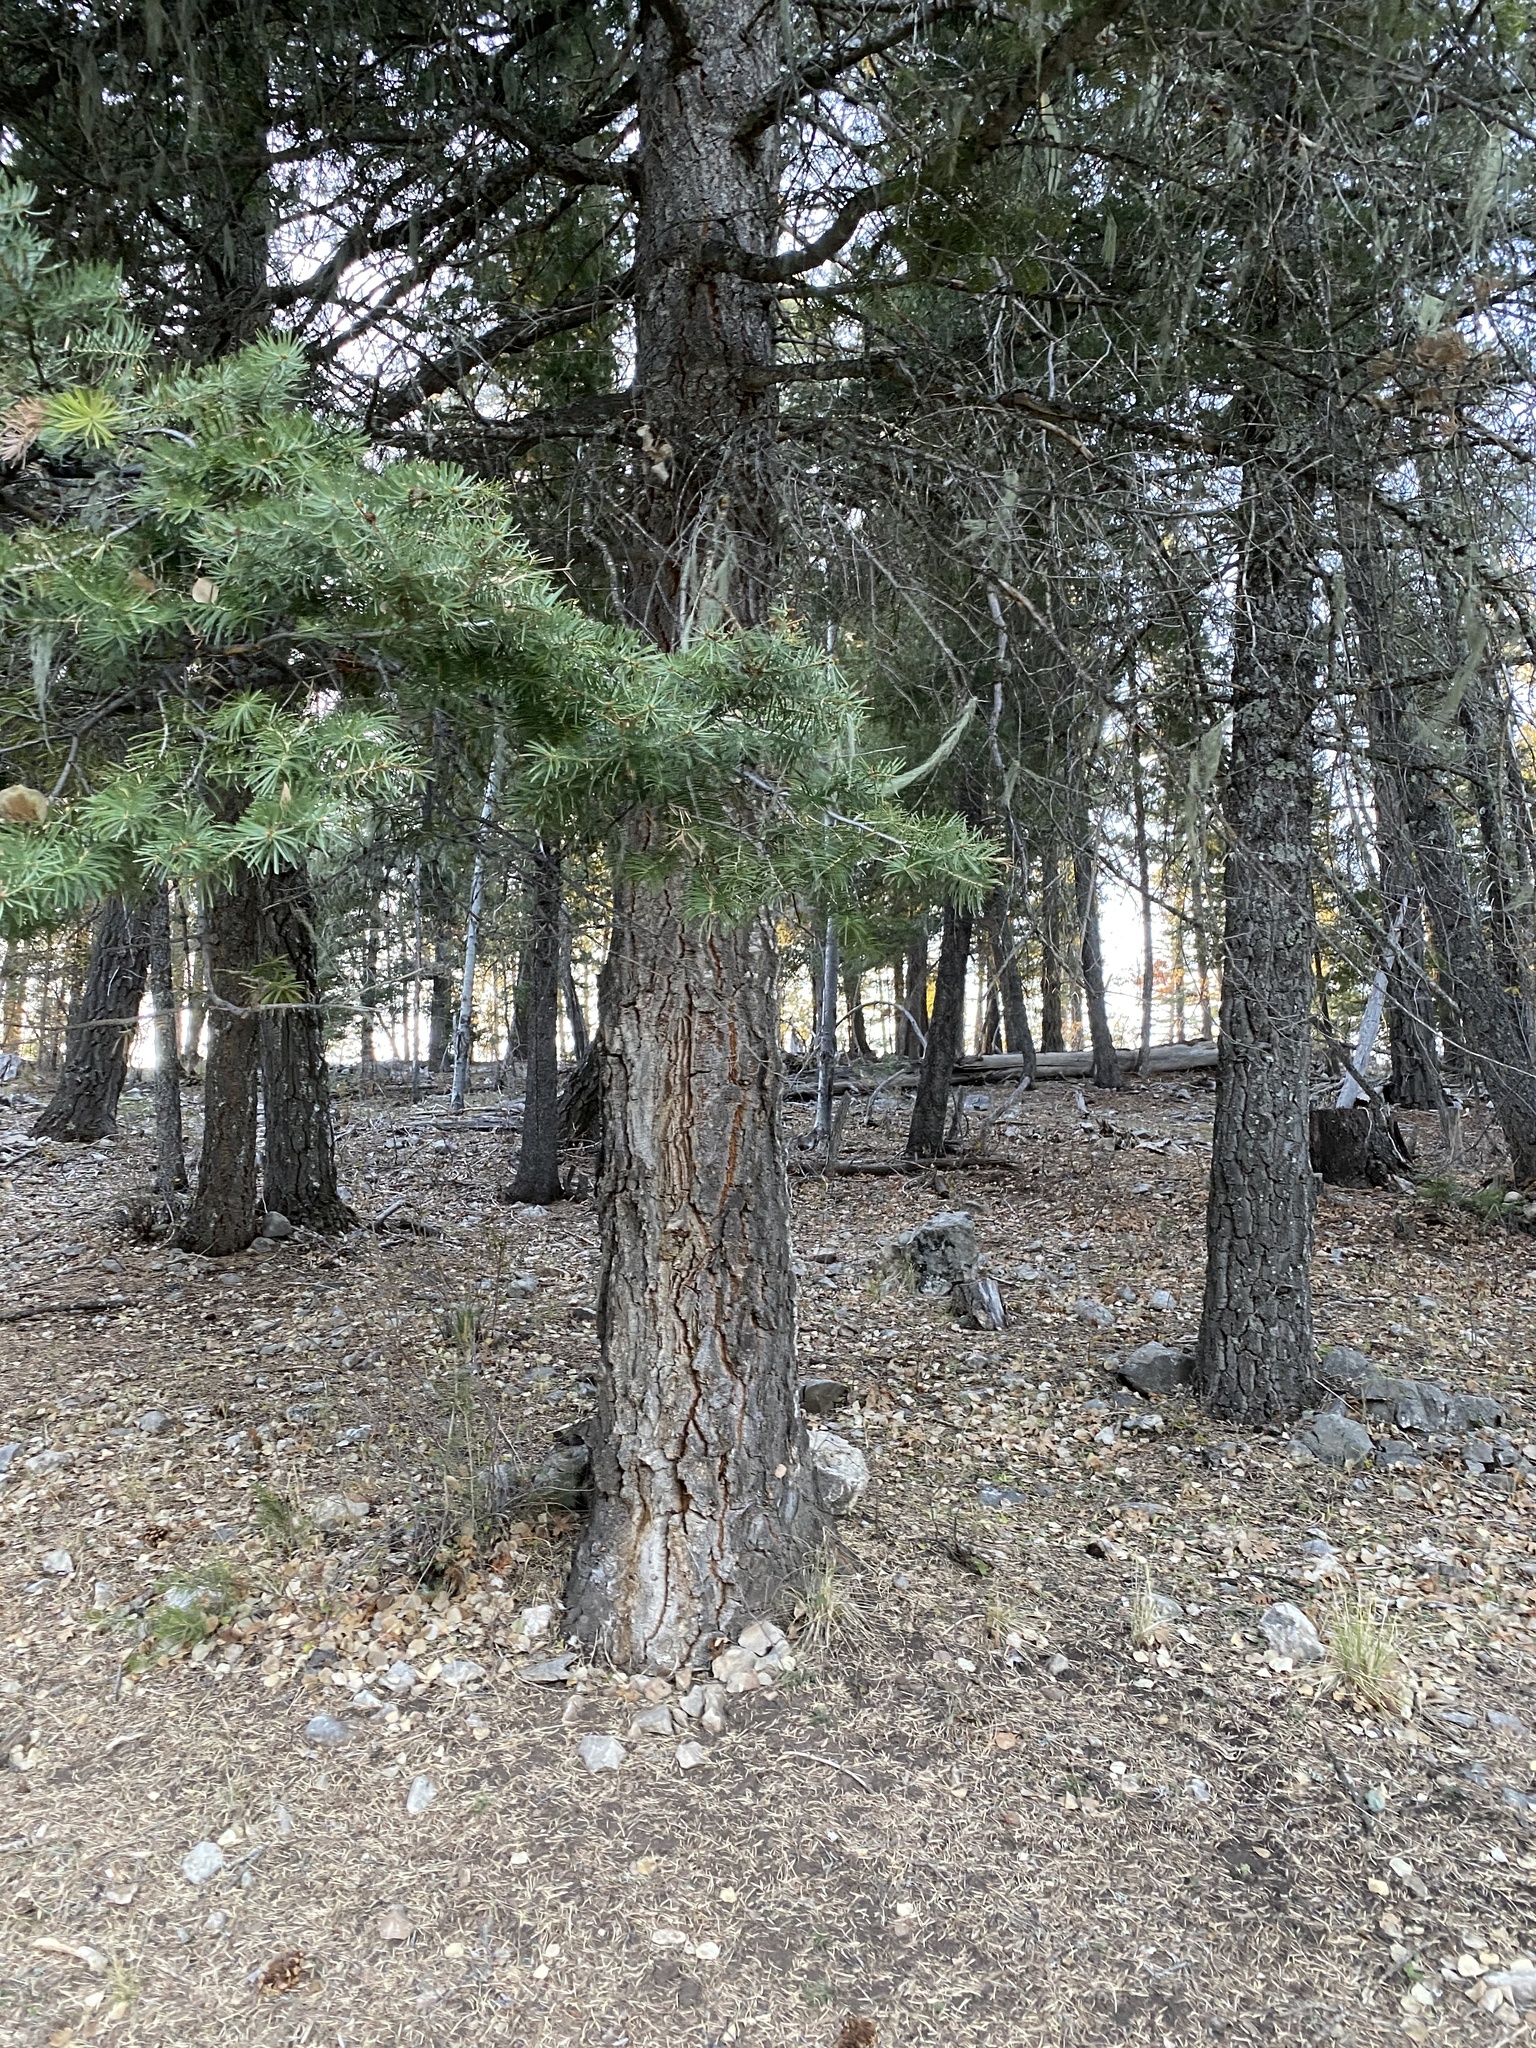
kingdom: Plantae
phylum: Tracheophyta
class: Pinopsida
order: Pinales
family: Pinaceae
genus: Abies
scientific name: Abies concolor
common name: Colorado fir
